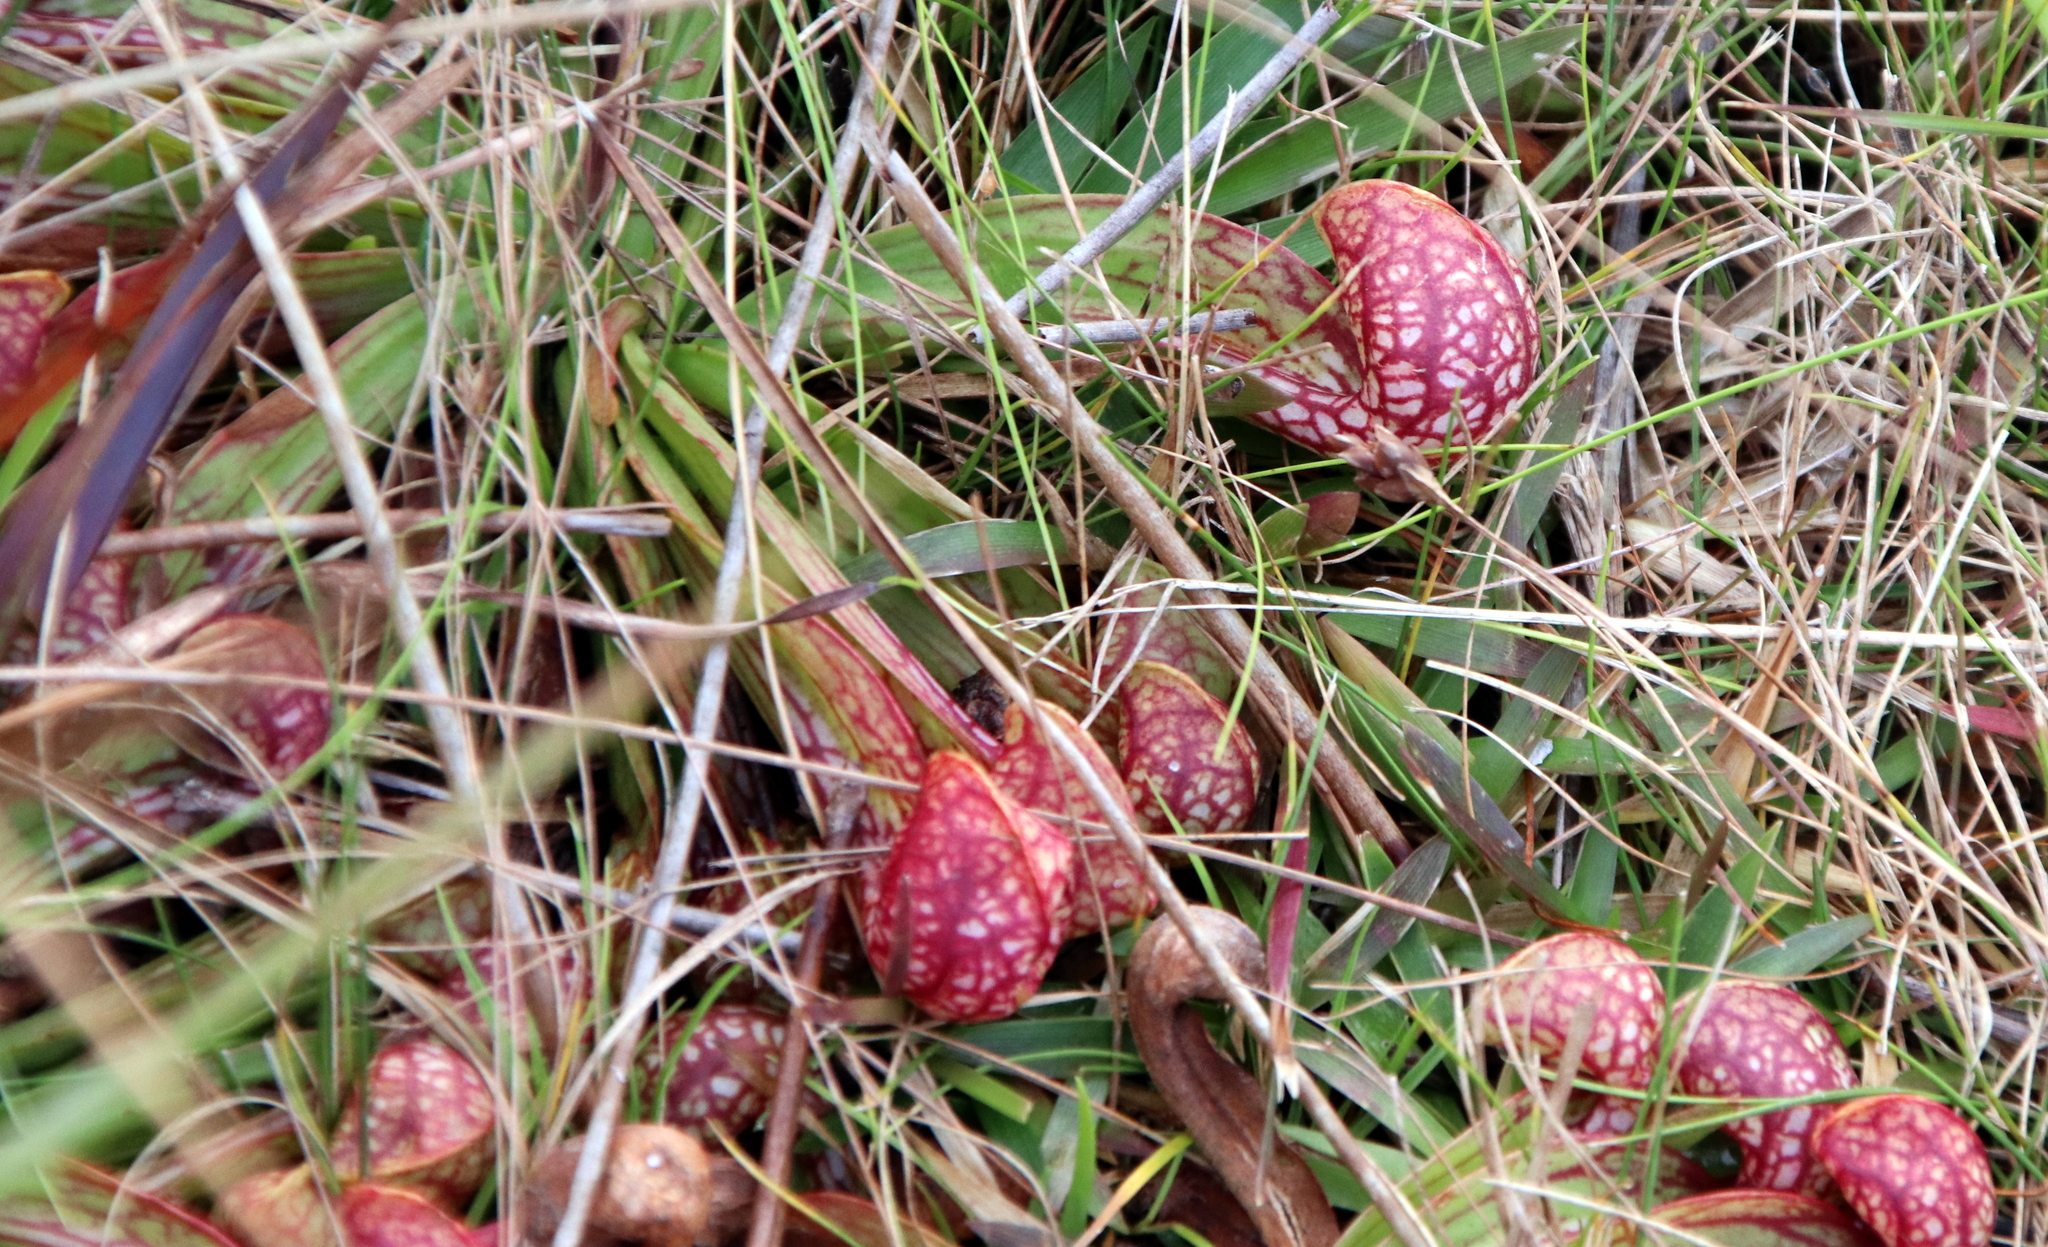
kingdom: Plantae
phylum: Tracheophyta
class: Magnoliopsida
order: Ericales
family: Sarraceniaceae
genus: Sarracenia
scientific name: Sarracenia psittacina
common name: Parrot pitcherplant
